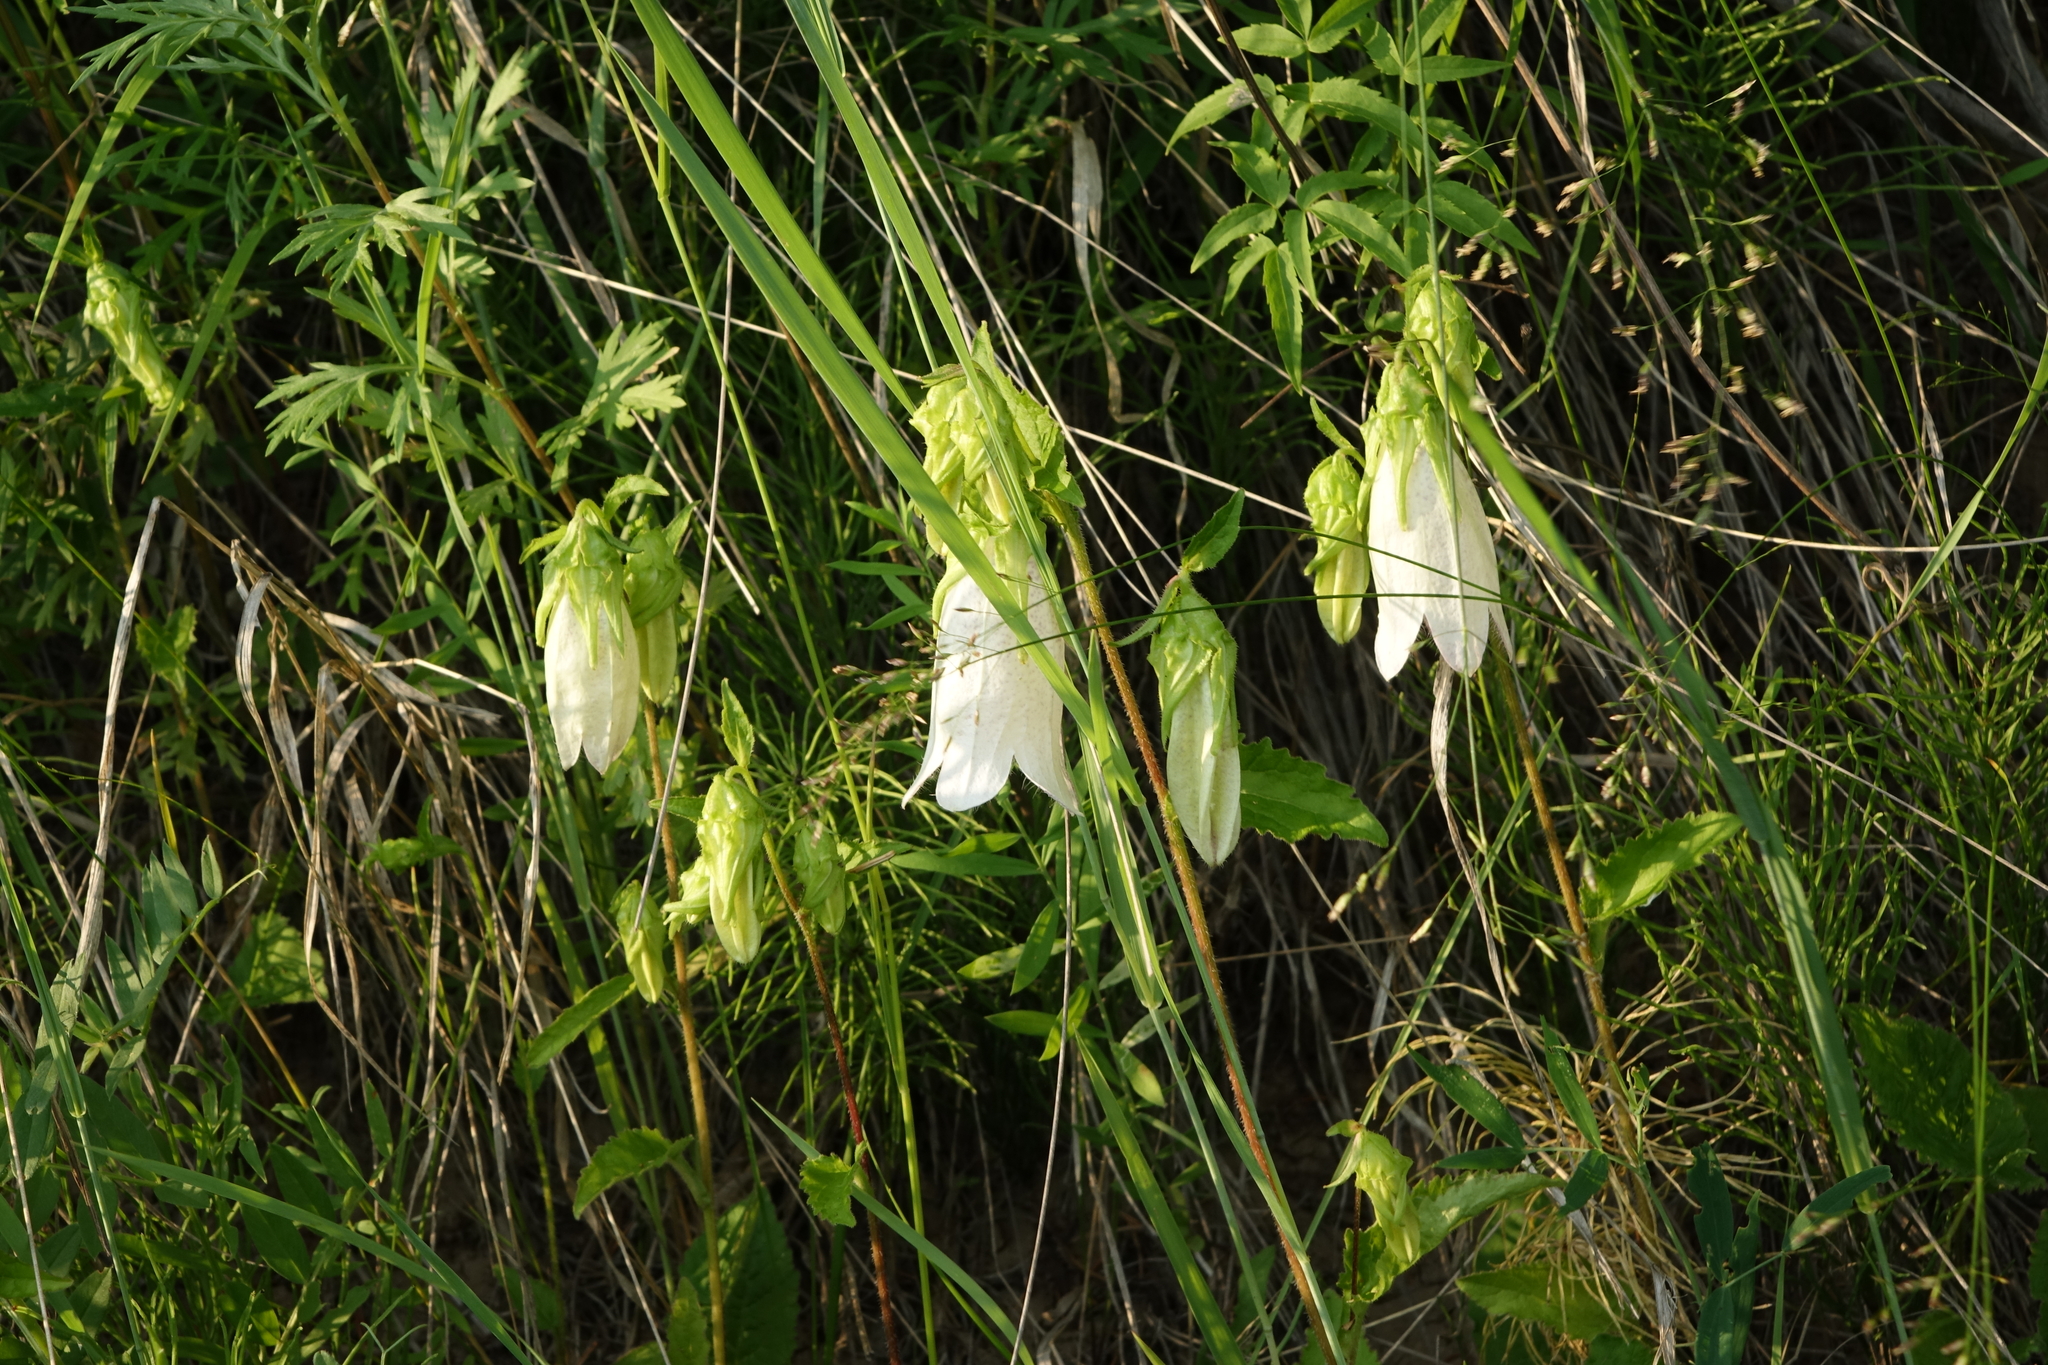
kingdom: Plantae
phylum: Tracheophyta
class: Magnoliopsida
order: Asterales
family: Campanulaceae
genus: Campanula
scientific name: Campanula punctata
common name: Spotted bellflower
